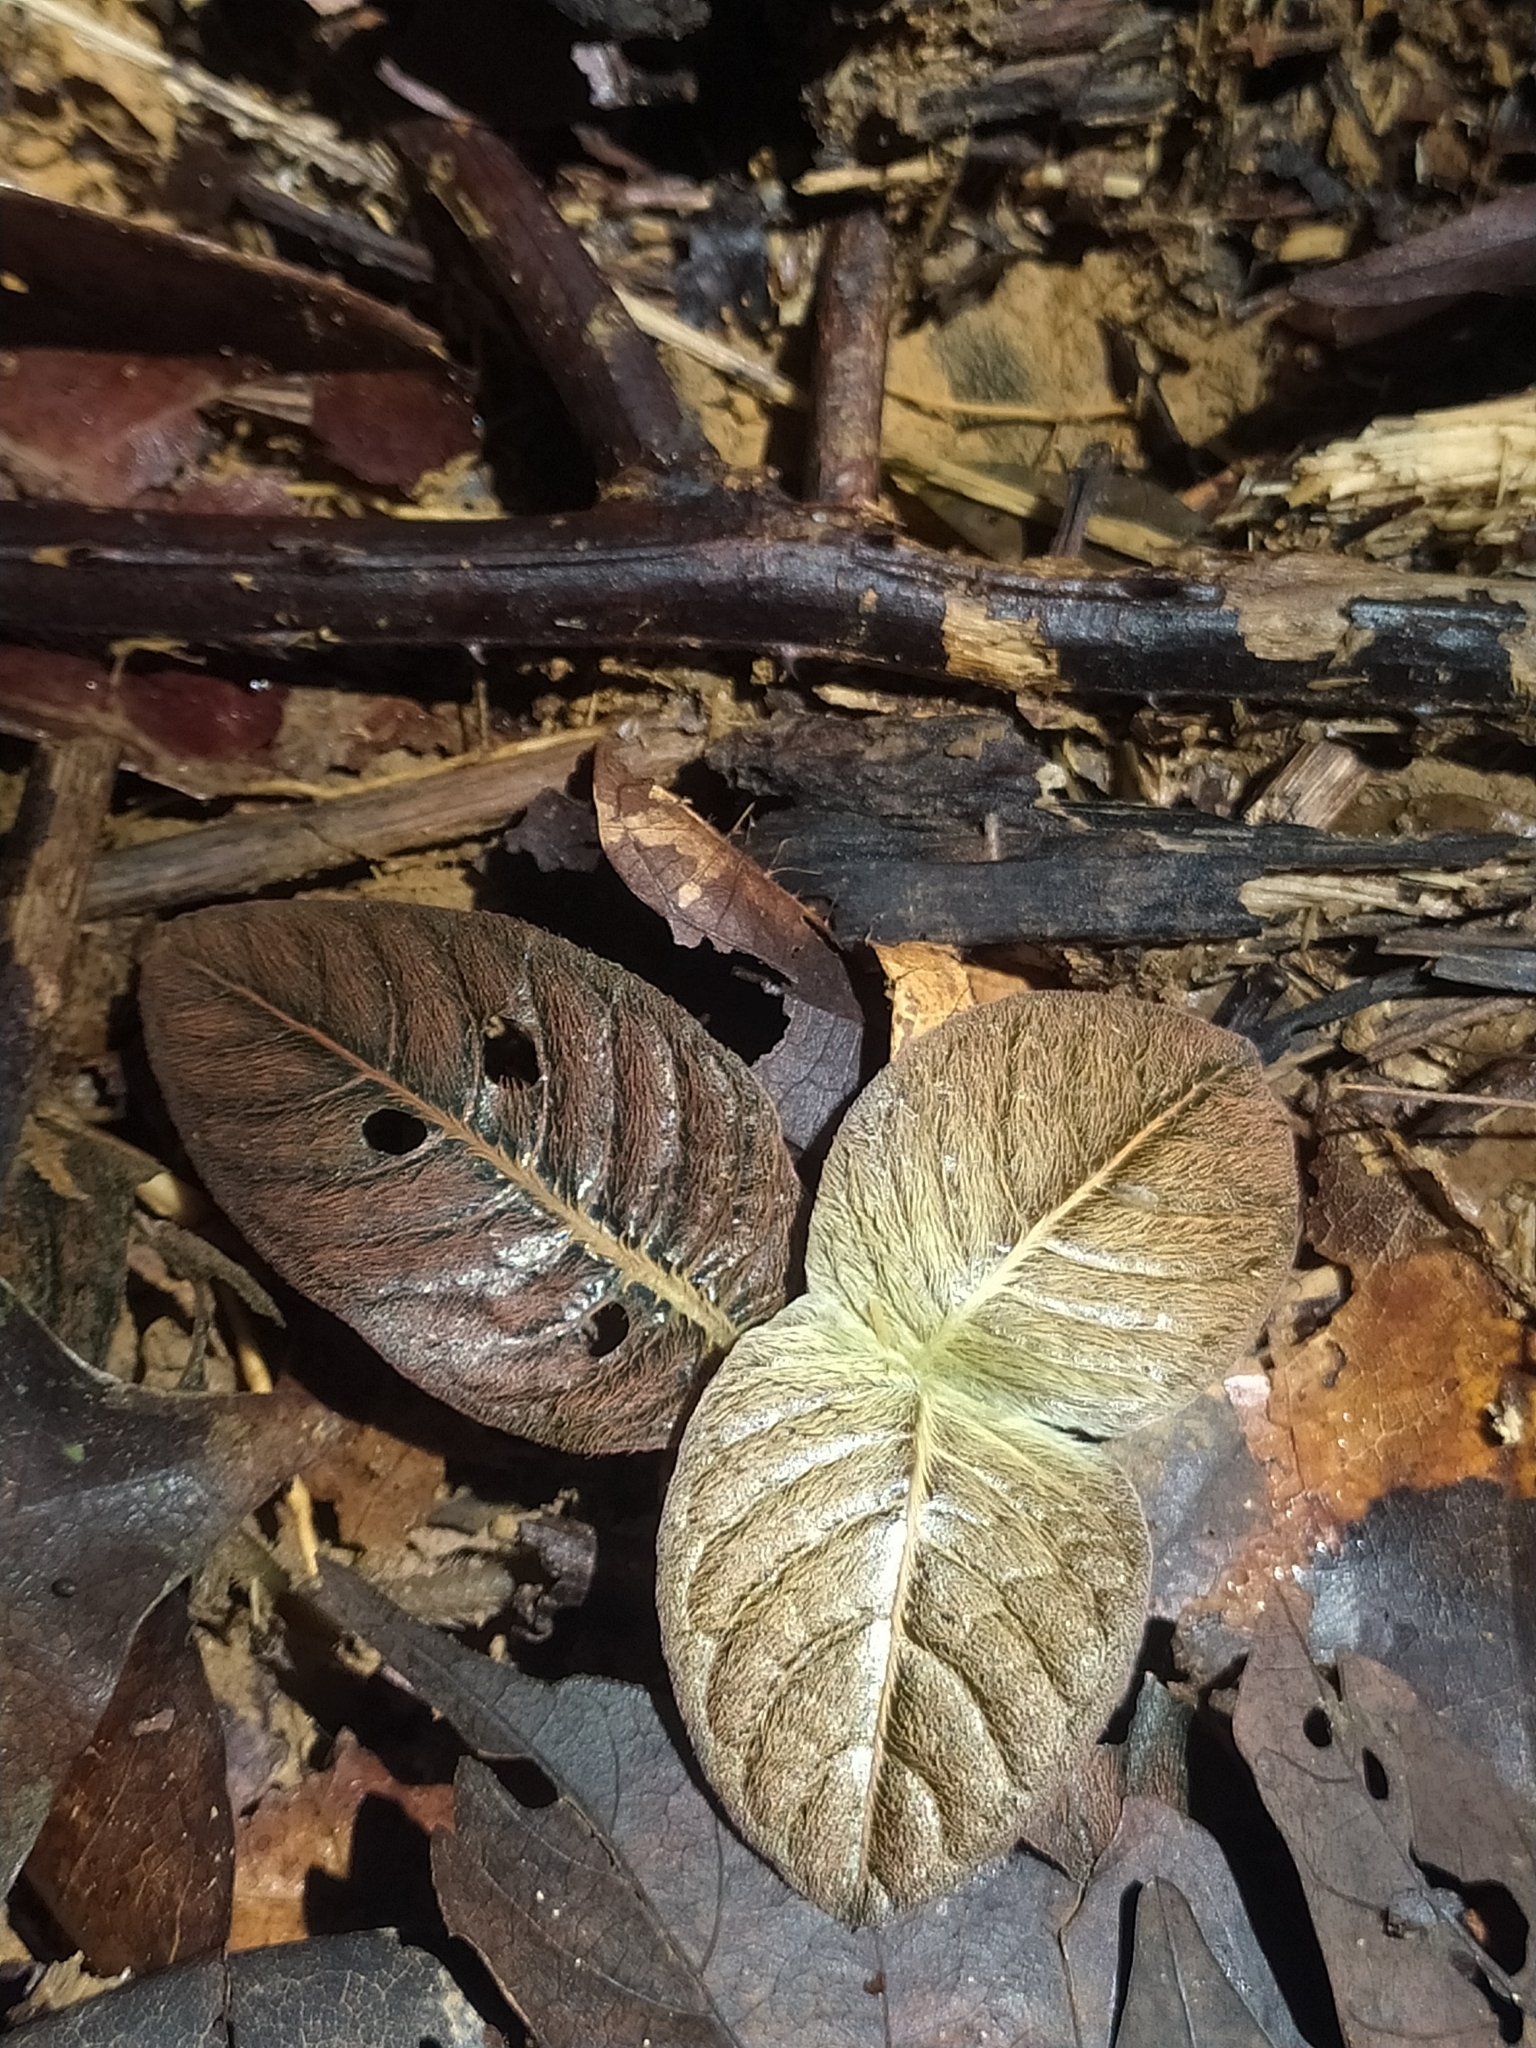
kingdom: Plantae
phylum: Tracheophyta
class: Magnoliopsida
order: Gentianales
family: Rubiaceae
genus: Palicourea
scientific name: Palicourea alba
